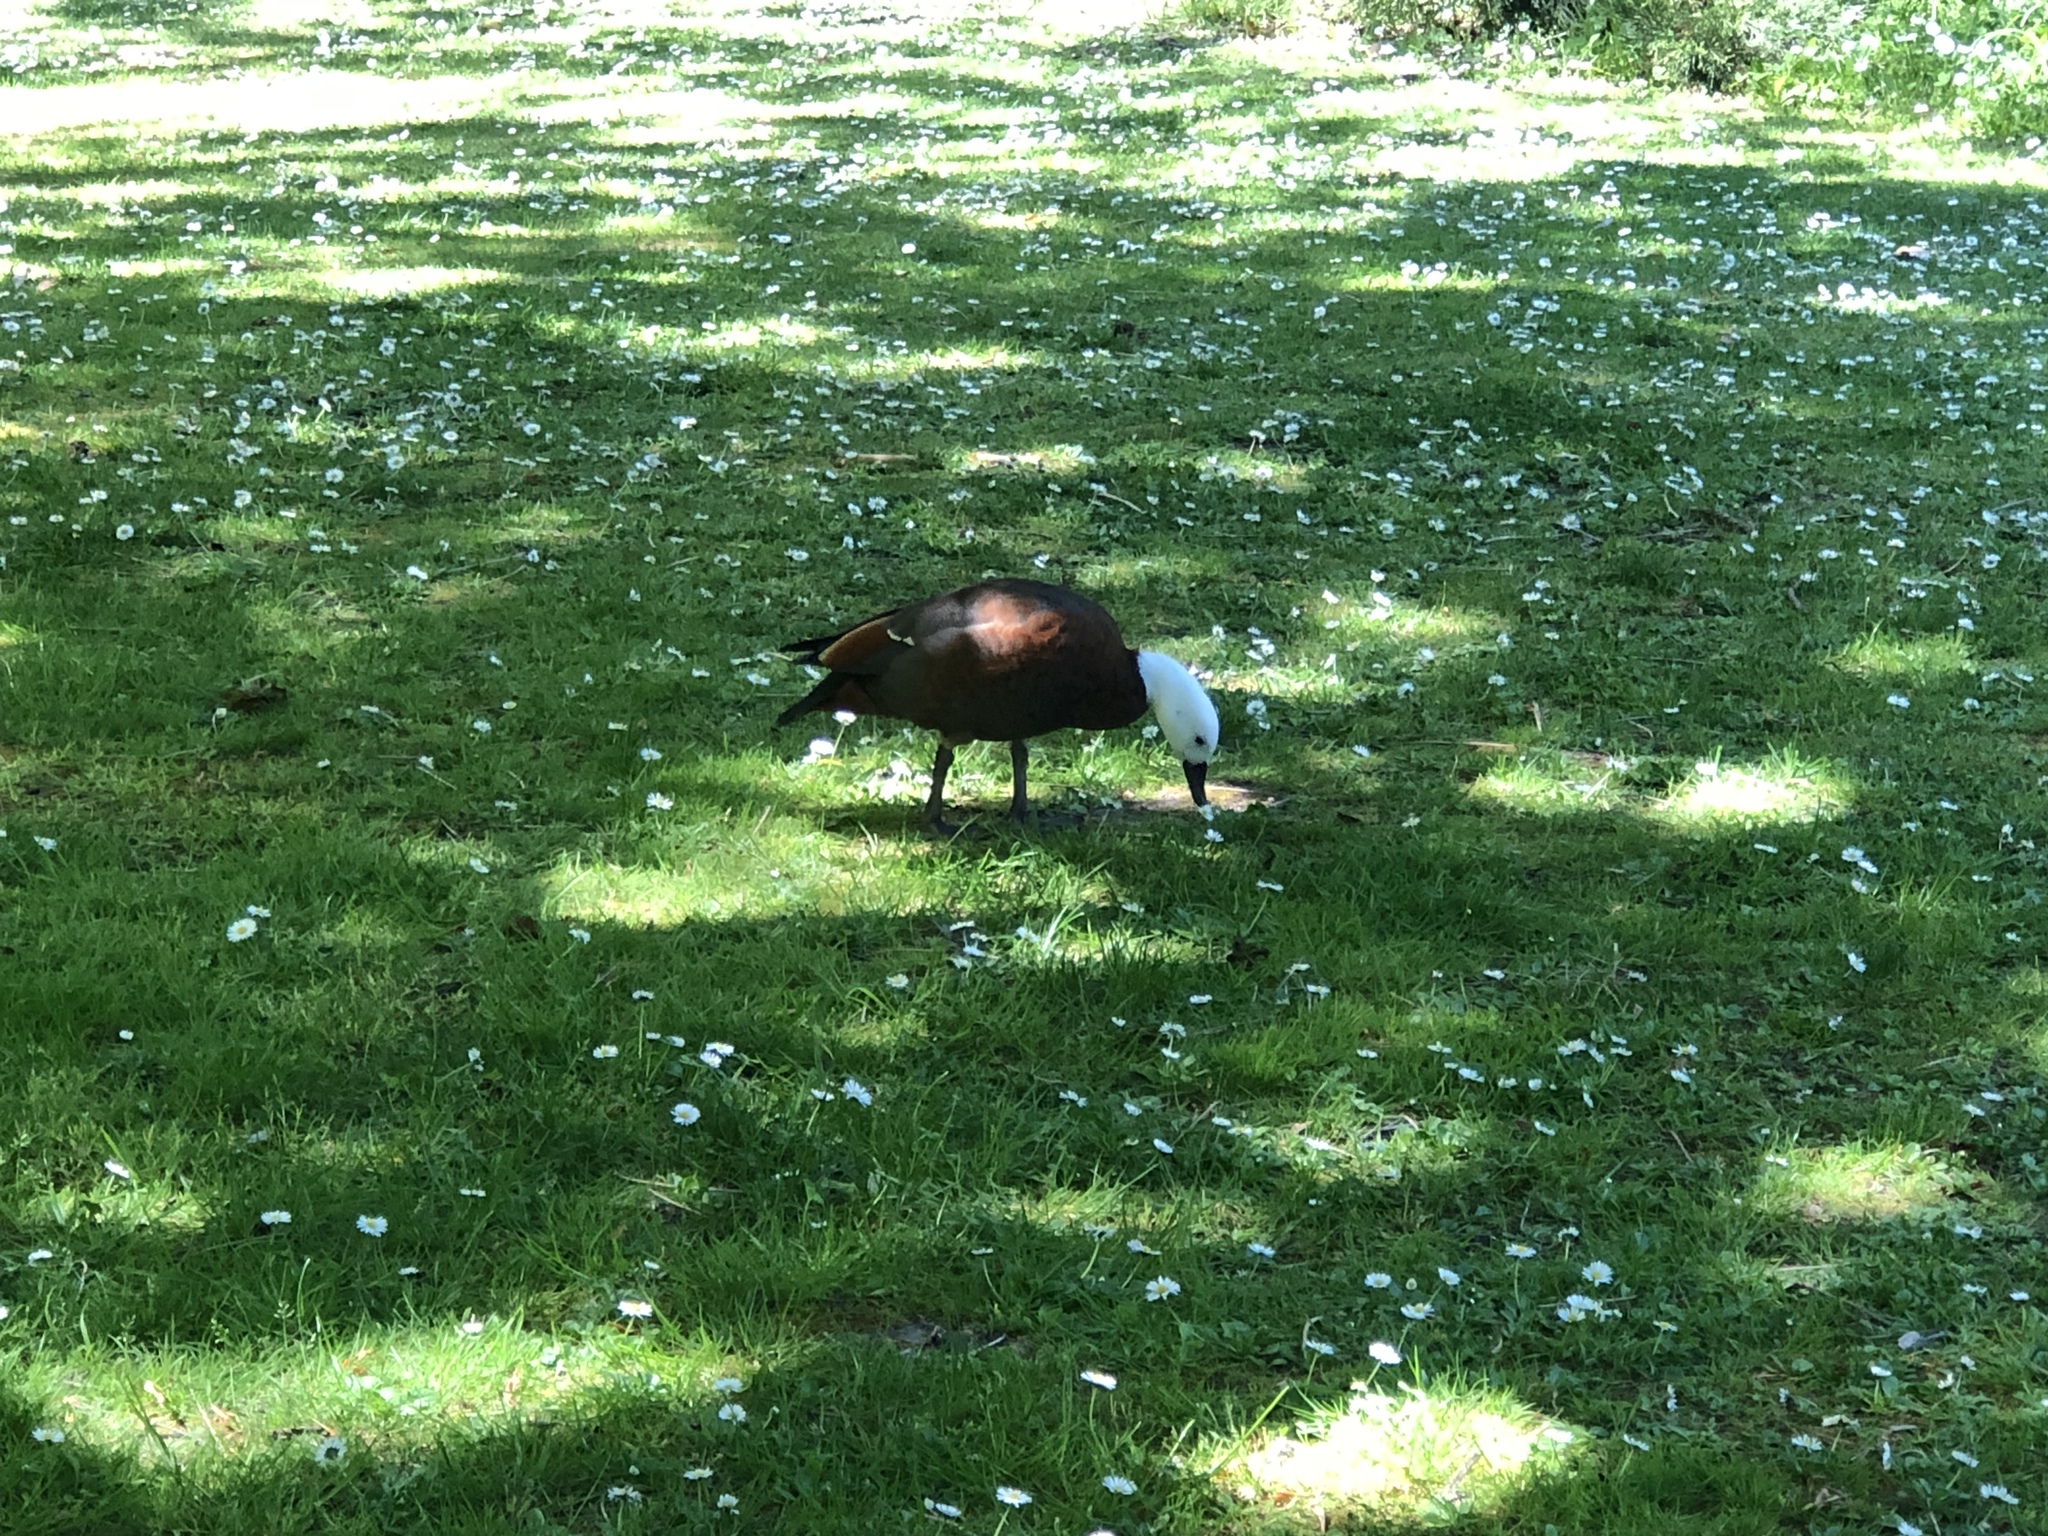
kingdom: Animalia
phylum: Chordata
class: Aves
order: Anseriformes
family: Anatidae
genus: Tadorna
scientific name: Tadorna variegata
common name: Paradise shelduck
